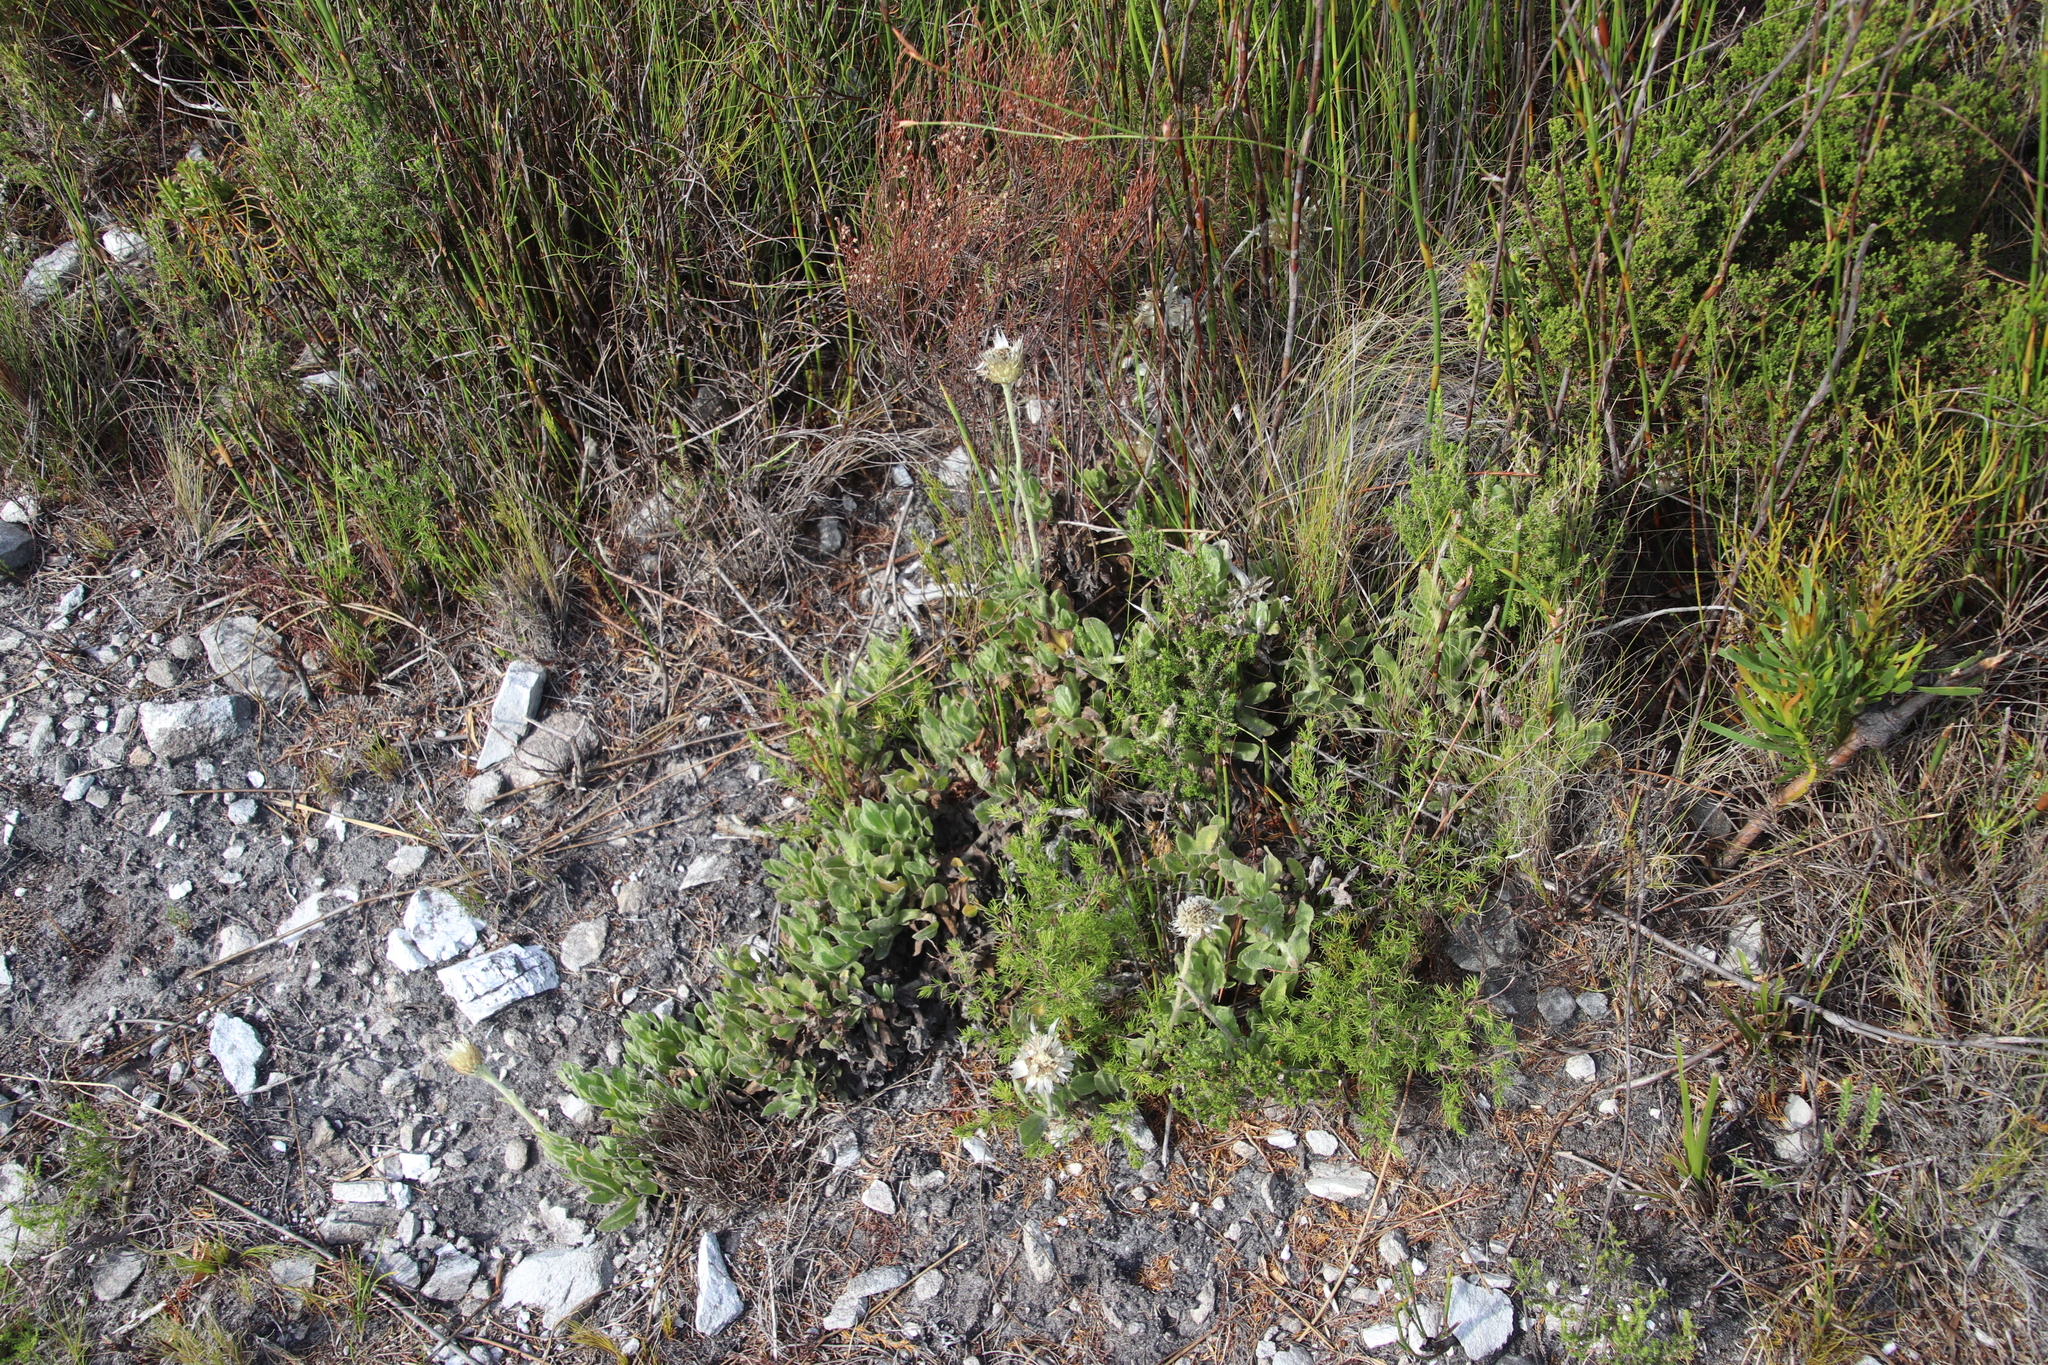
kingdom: Plantae
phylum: Tracheophyta
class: Magnoliopsida
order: Asterales
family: Asteraceae
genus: Syncarpha
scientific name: Syncarpha speciosissima
